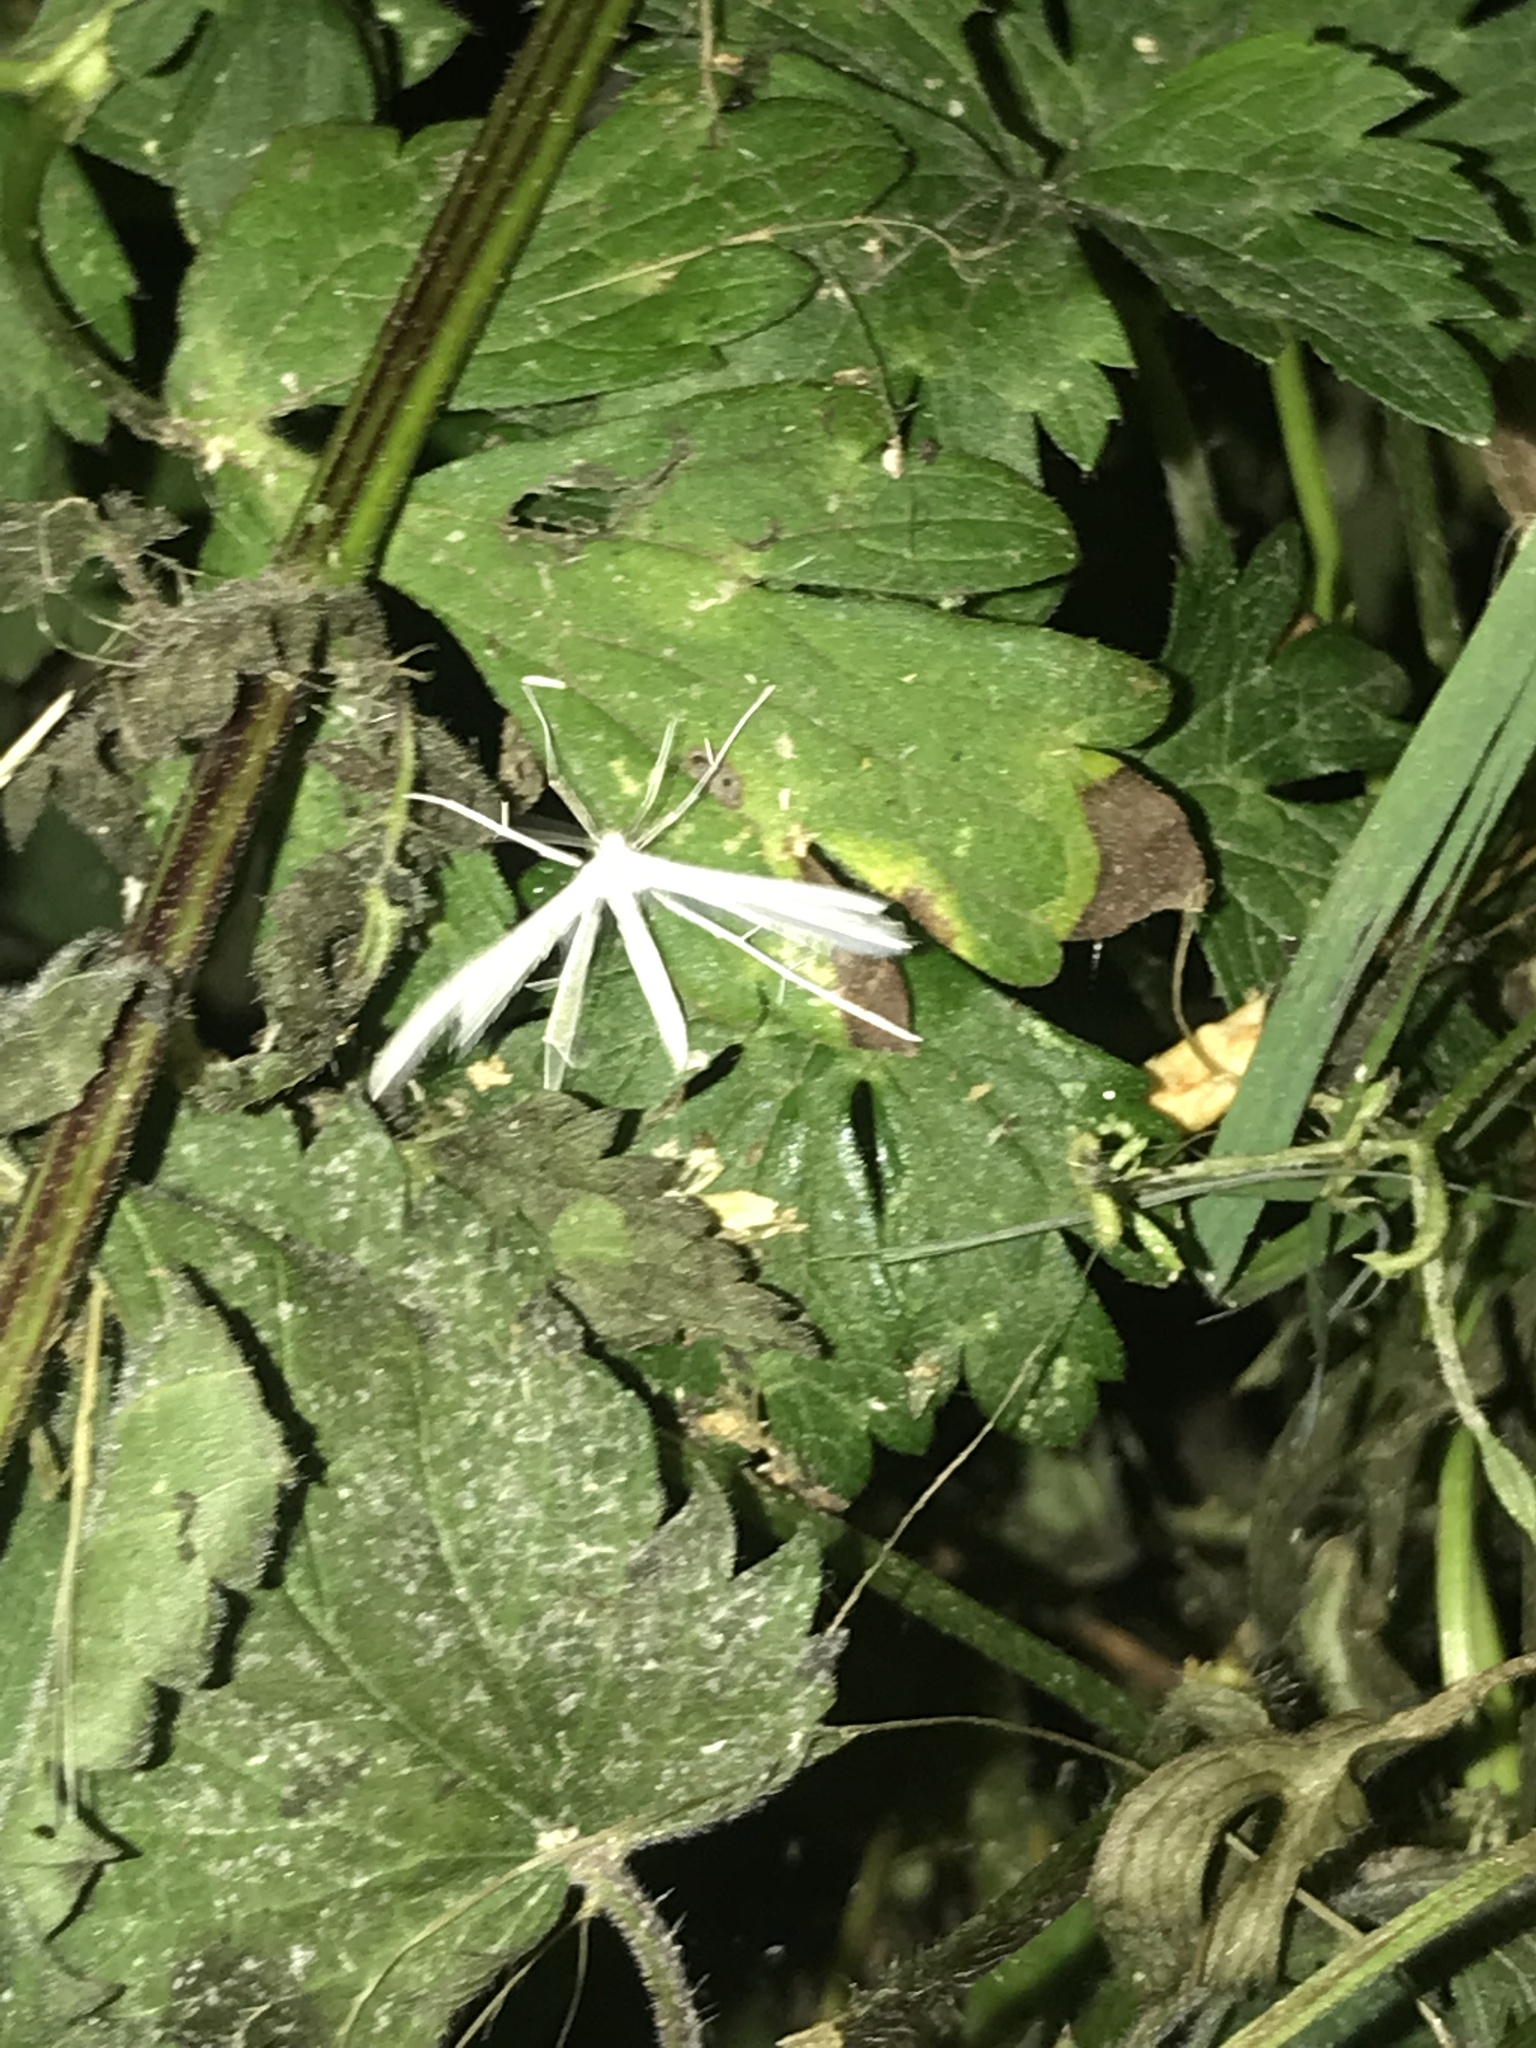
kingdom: Animalia
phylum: Arthropoda
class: Insecta
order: Lepidoptera
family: Pterophoridae
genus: Pterophorus
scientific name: Pterophorus pentadactyla
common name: White plume moth
